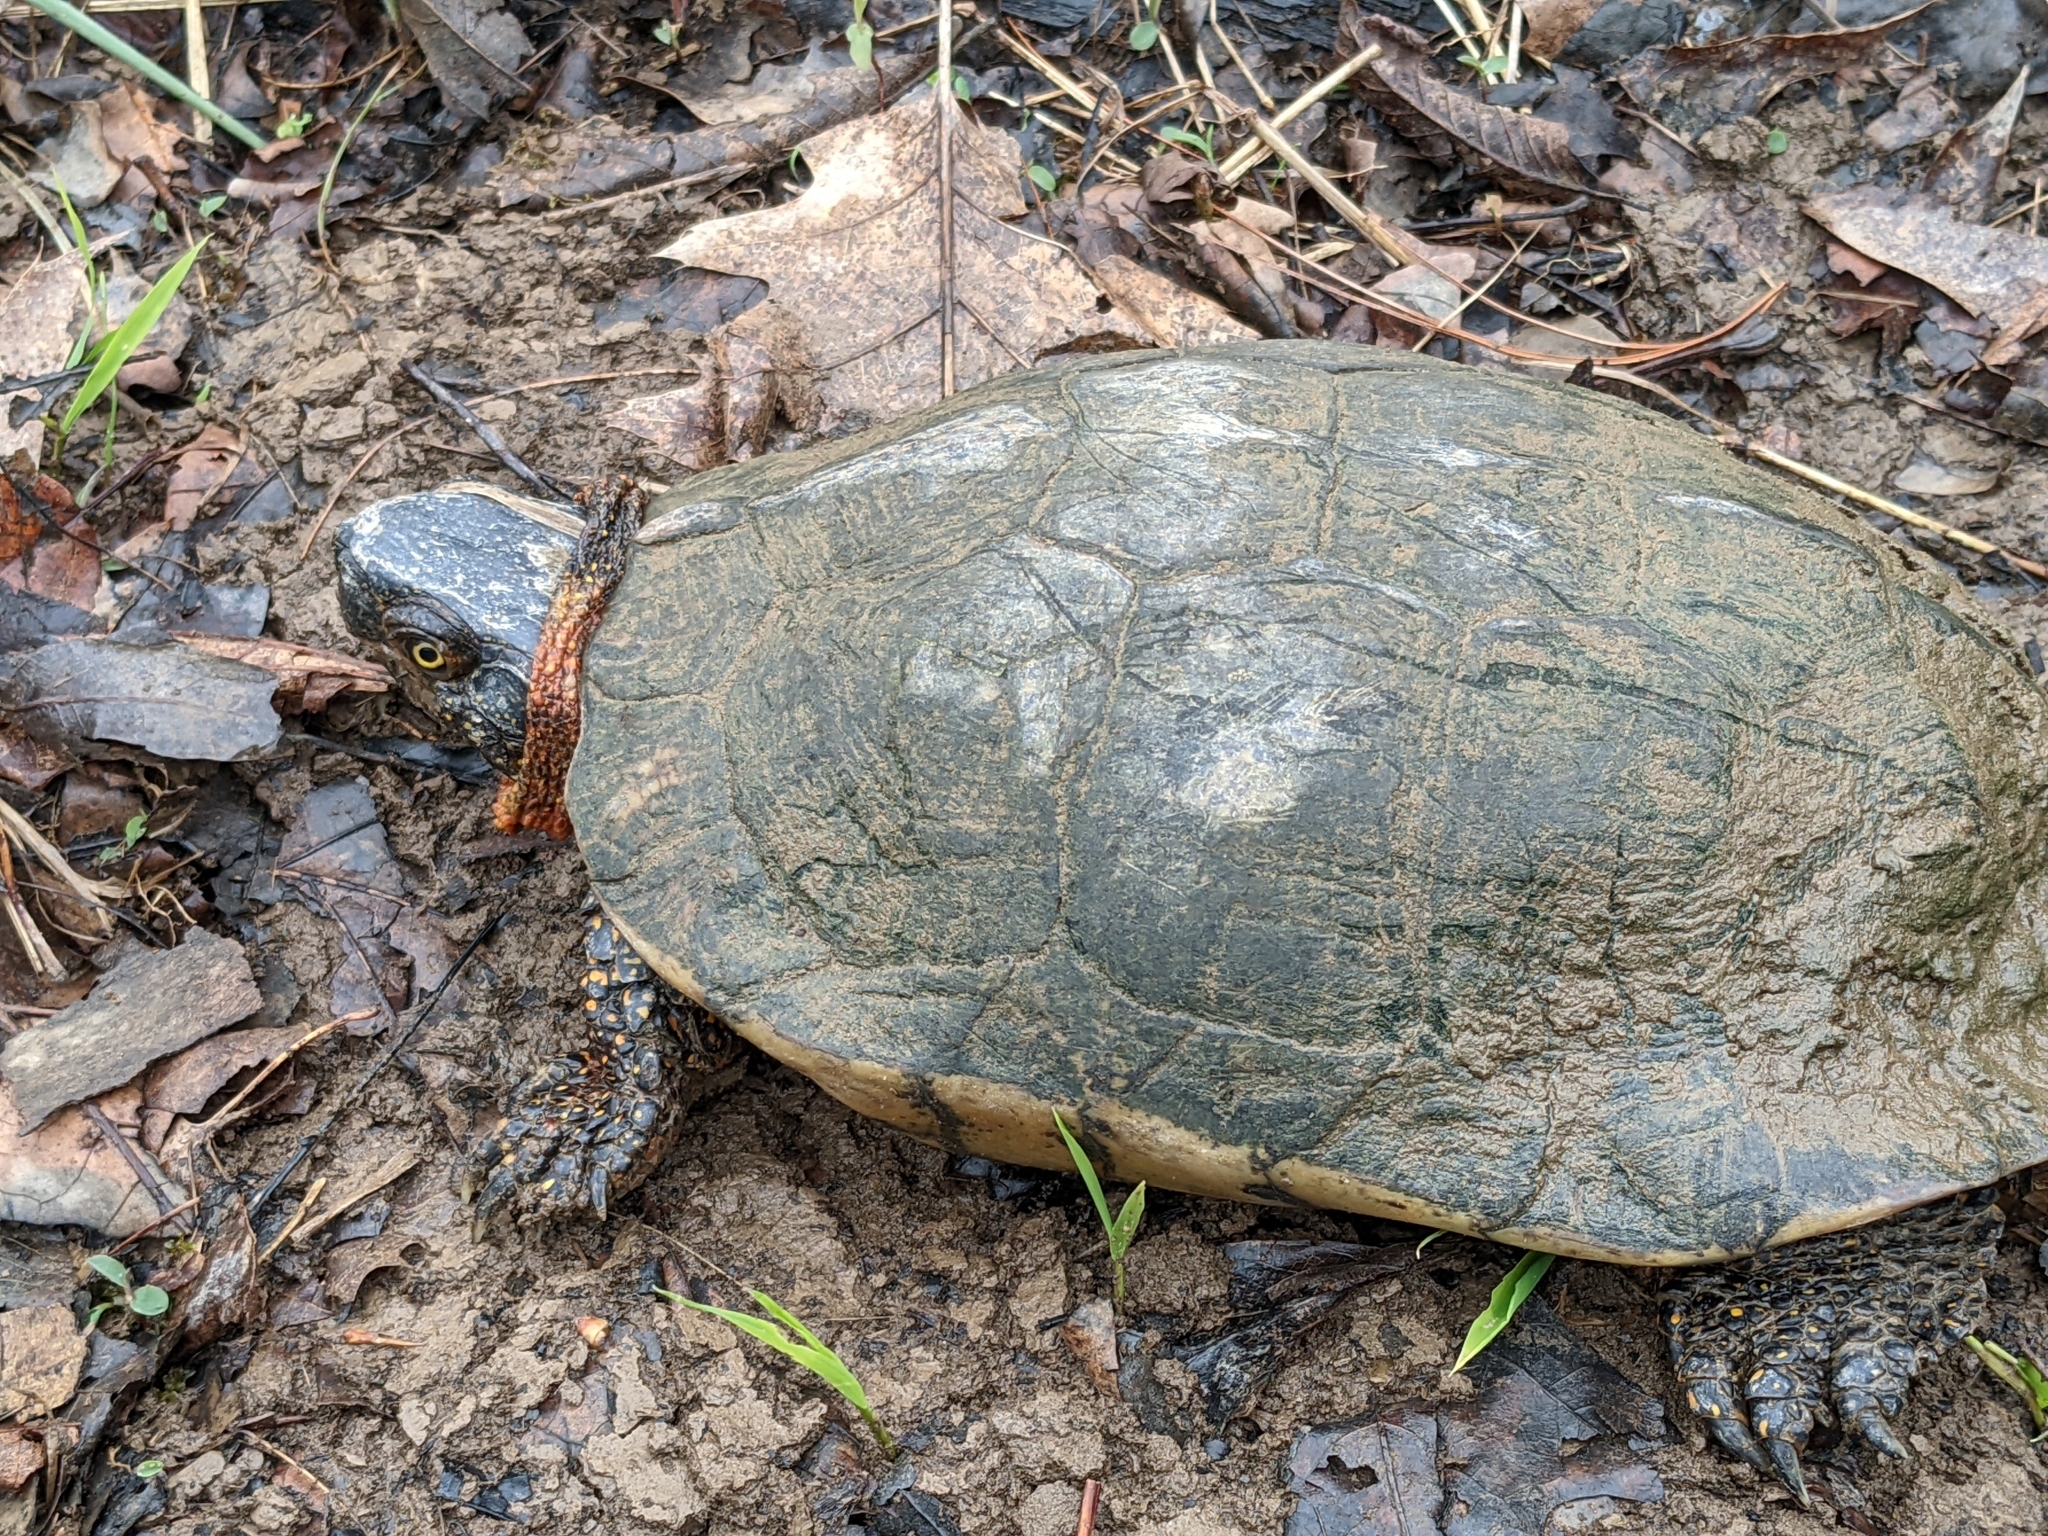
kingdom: Animalia
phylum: Chordata
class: Testudines
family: Emydidae
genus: Glyptemys
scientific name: Glyptemys insculpta
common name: Wood turtle
